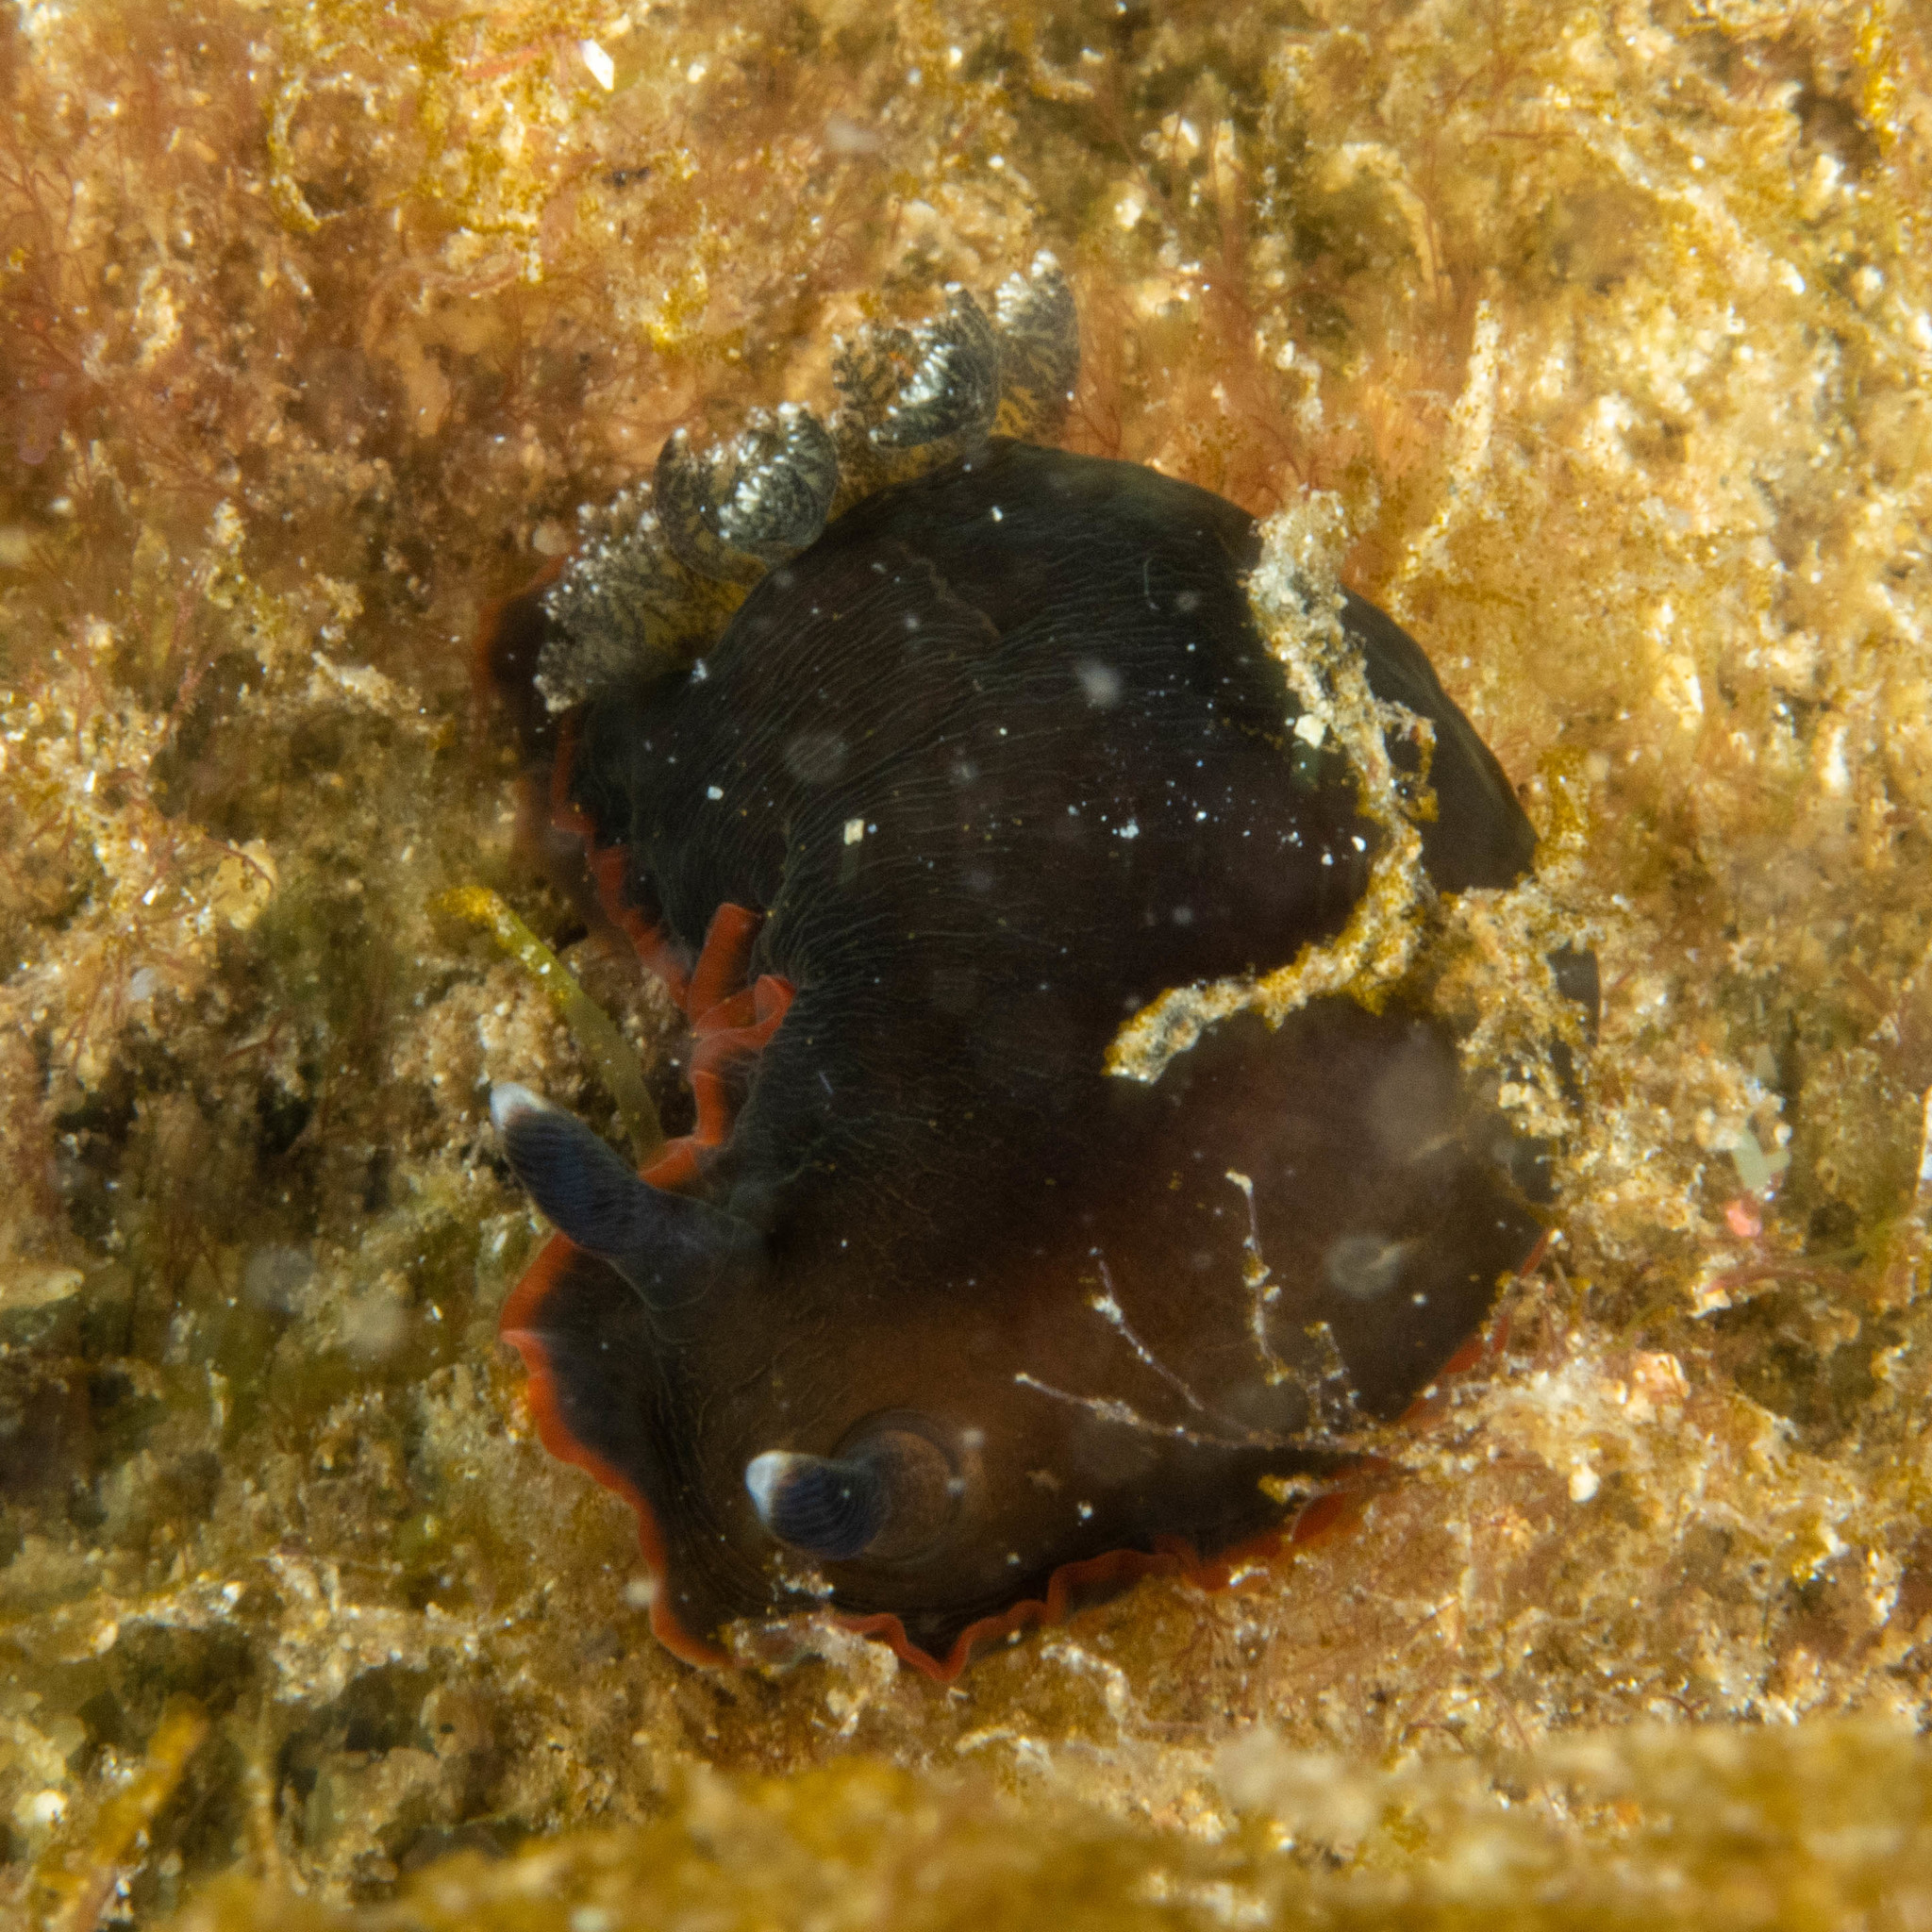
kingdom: Animalia
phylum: Mollusca
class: Gastropoda
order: Nudibranchia
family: Dendrodorididae
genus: Dendrodoris
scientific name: Dendrodoris arborescens
